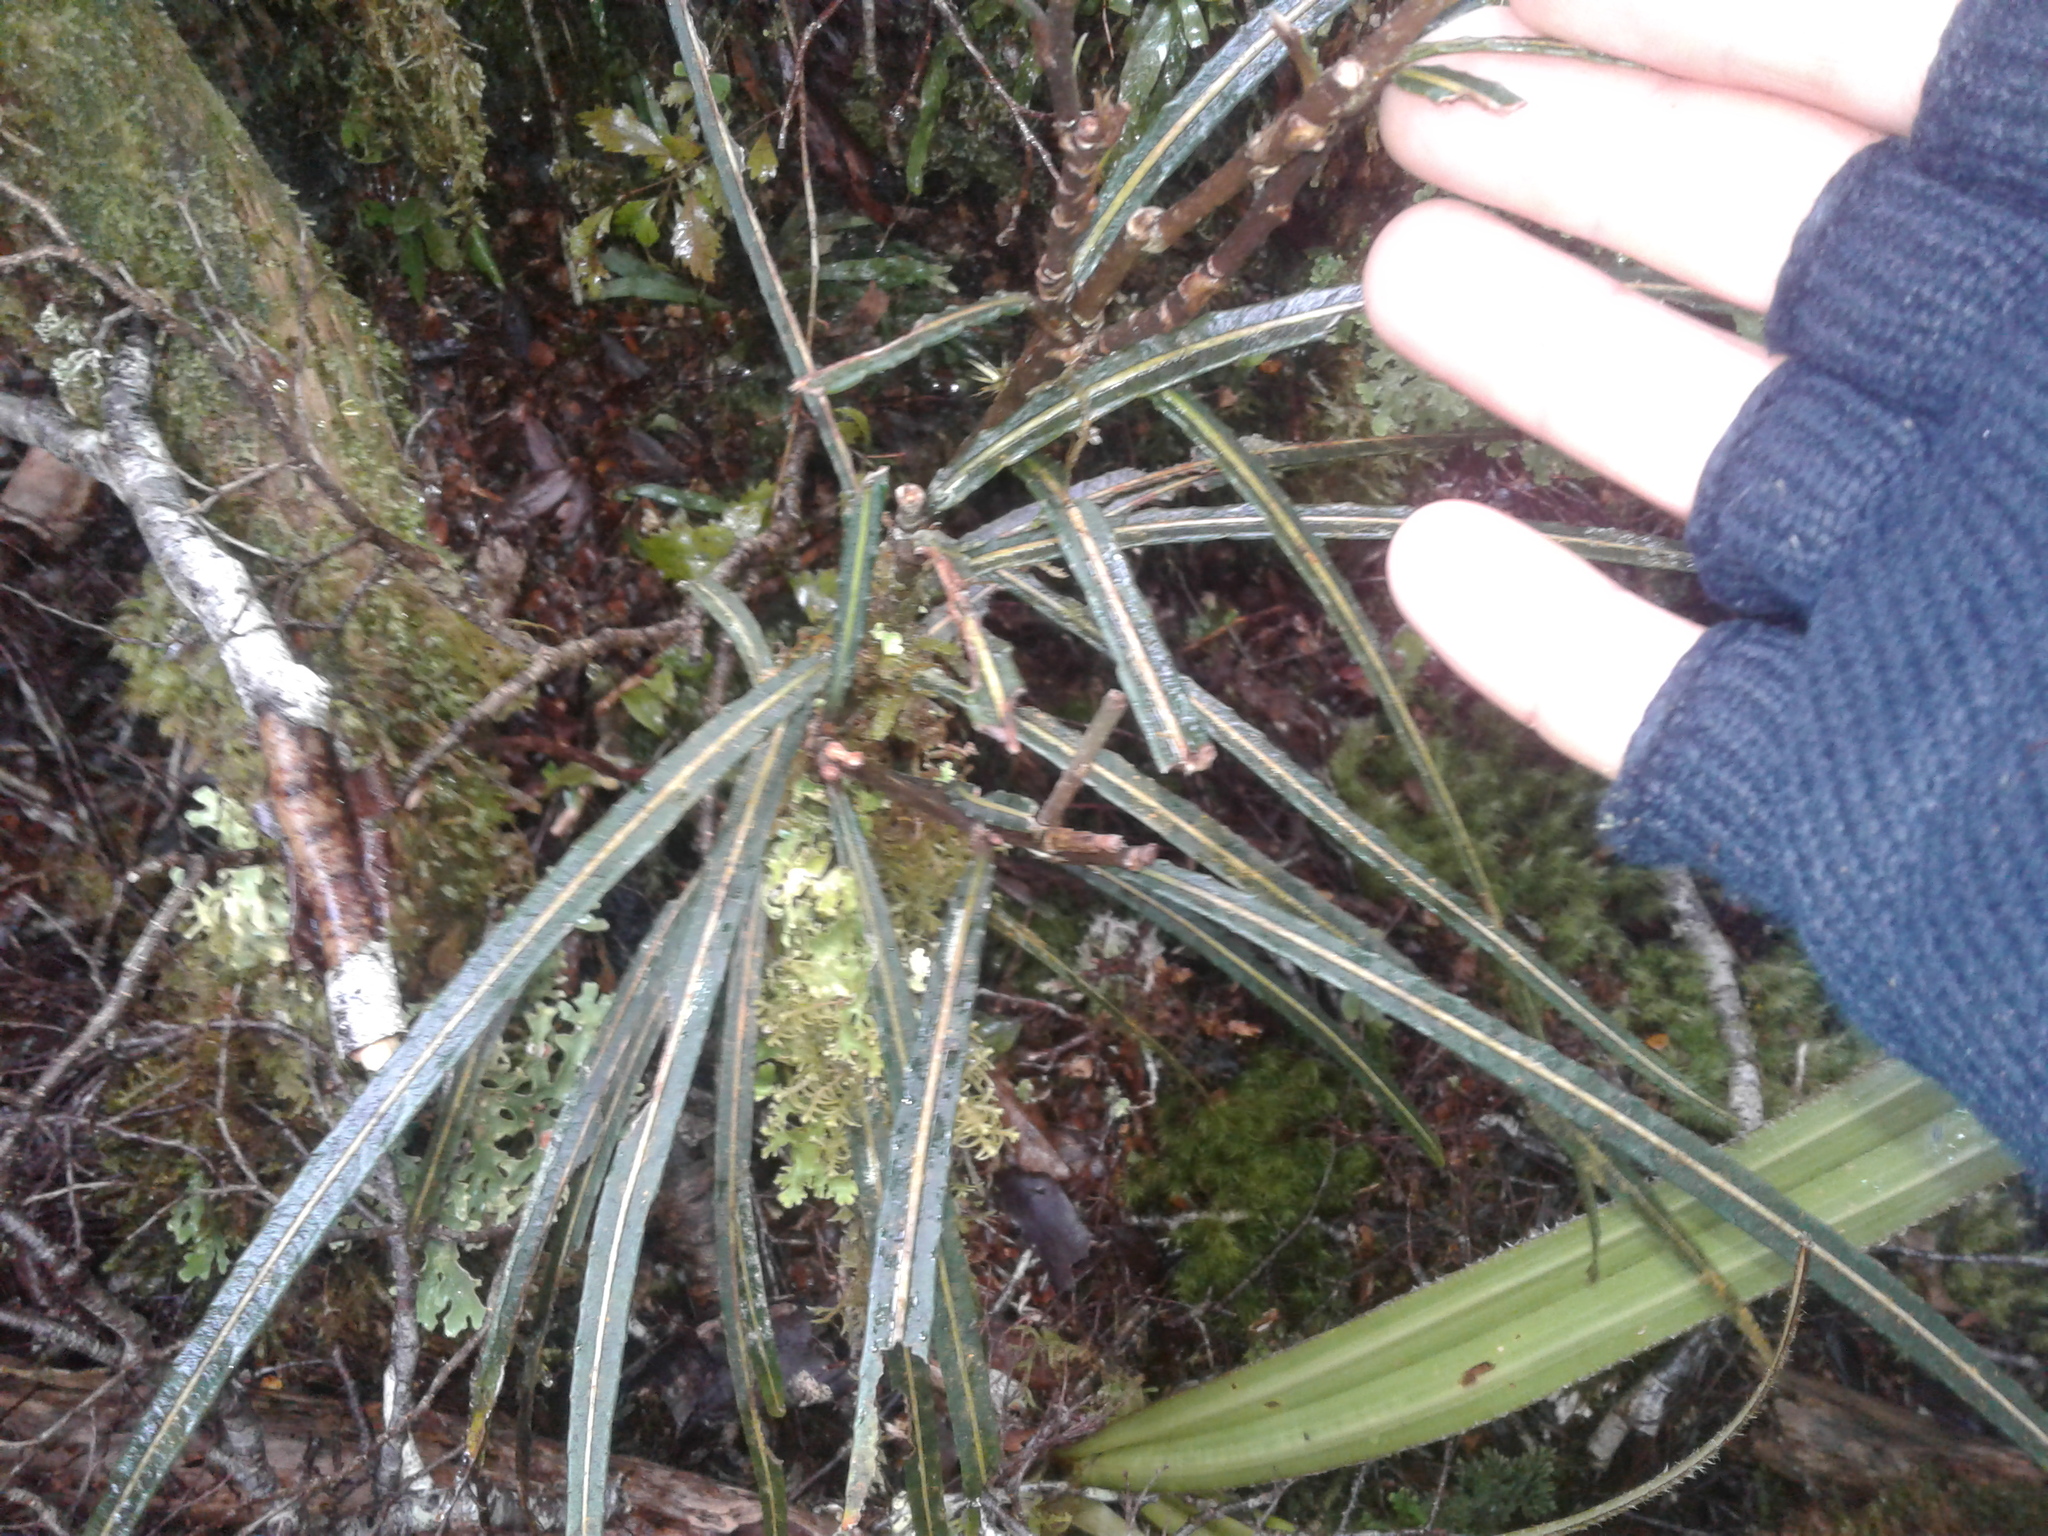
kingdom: Plantae
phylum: Tracheophyta
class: Magnoliopsida
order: Apiales
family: Araliaceae
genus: Pseudopanax
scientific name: Pseudopanax crassifolius
